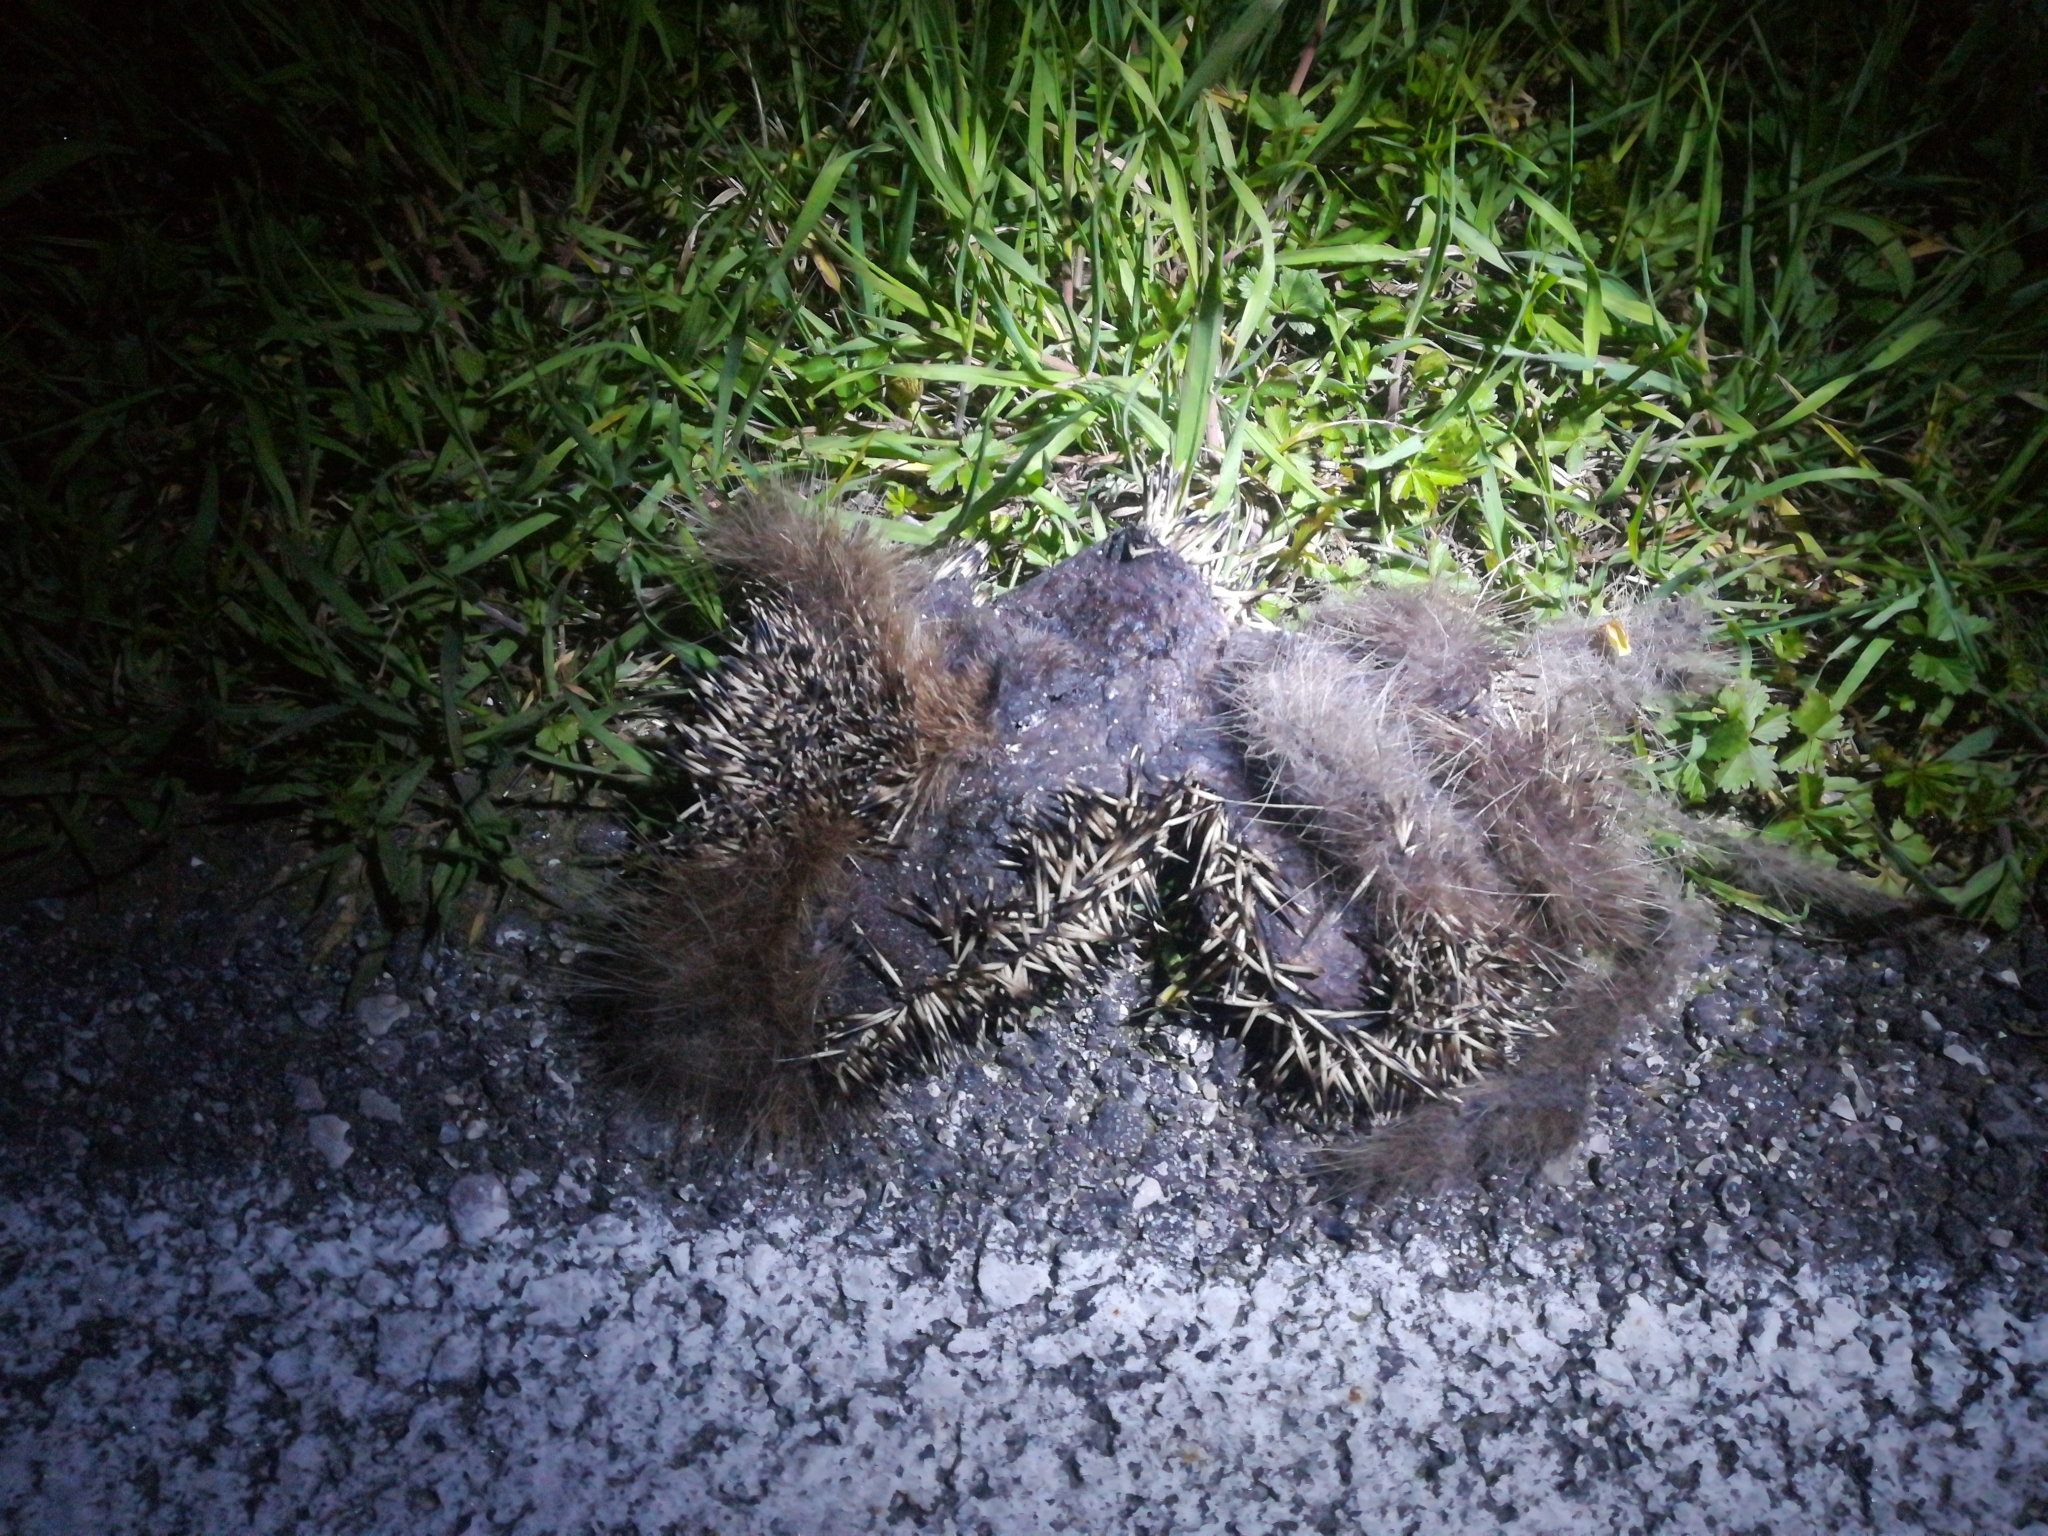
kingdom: Animalia
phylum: Chordata
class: Mammalia
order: Erinaceomorpha
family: Erinaceidae
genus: Erinaceus
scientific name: Erinaceus europaeus
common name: West european hedgehog
